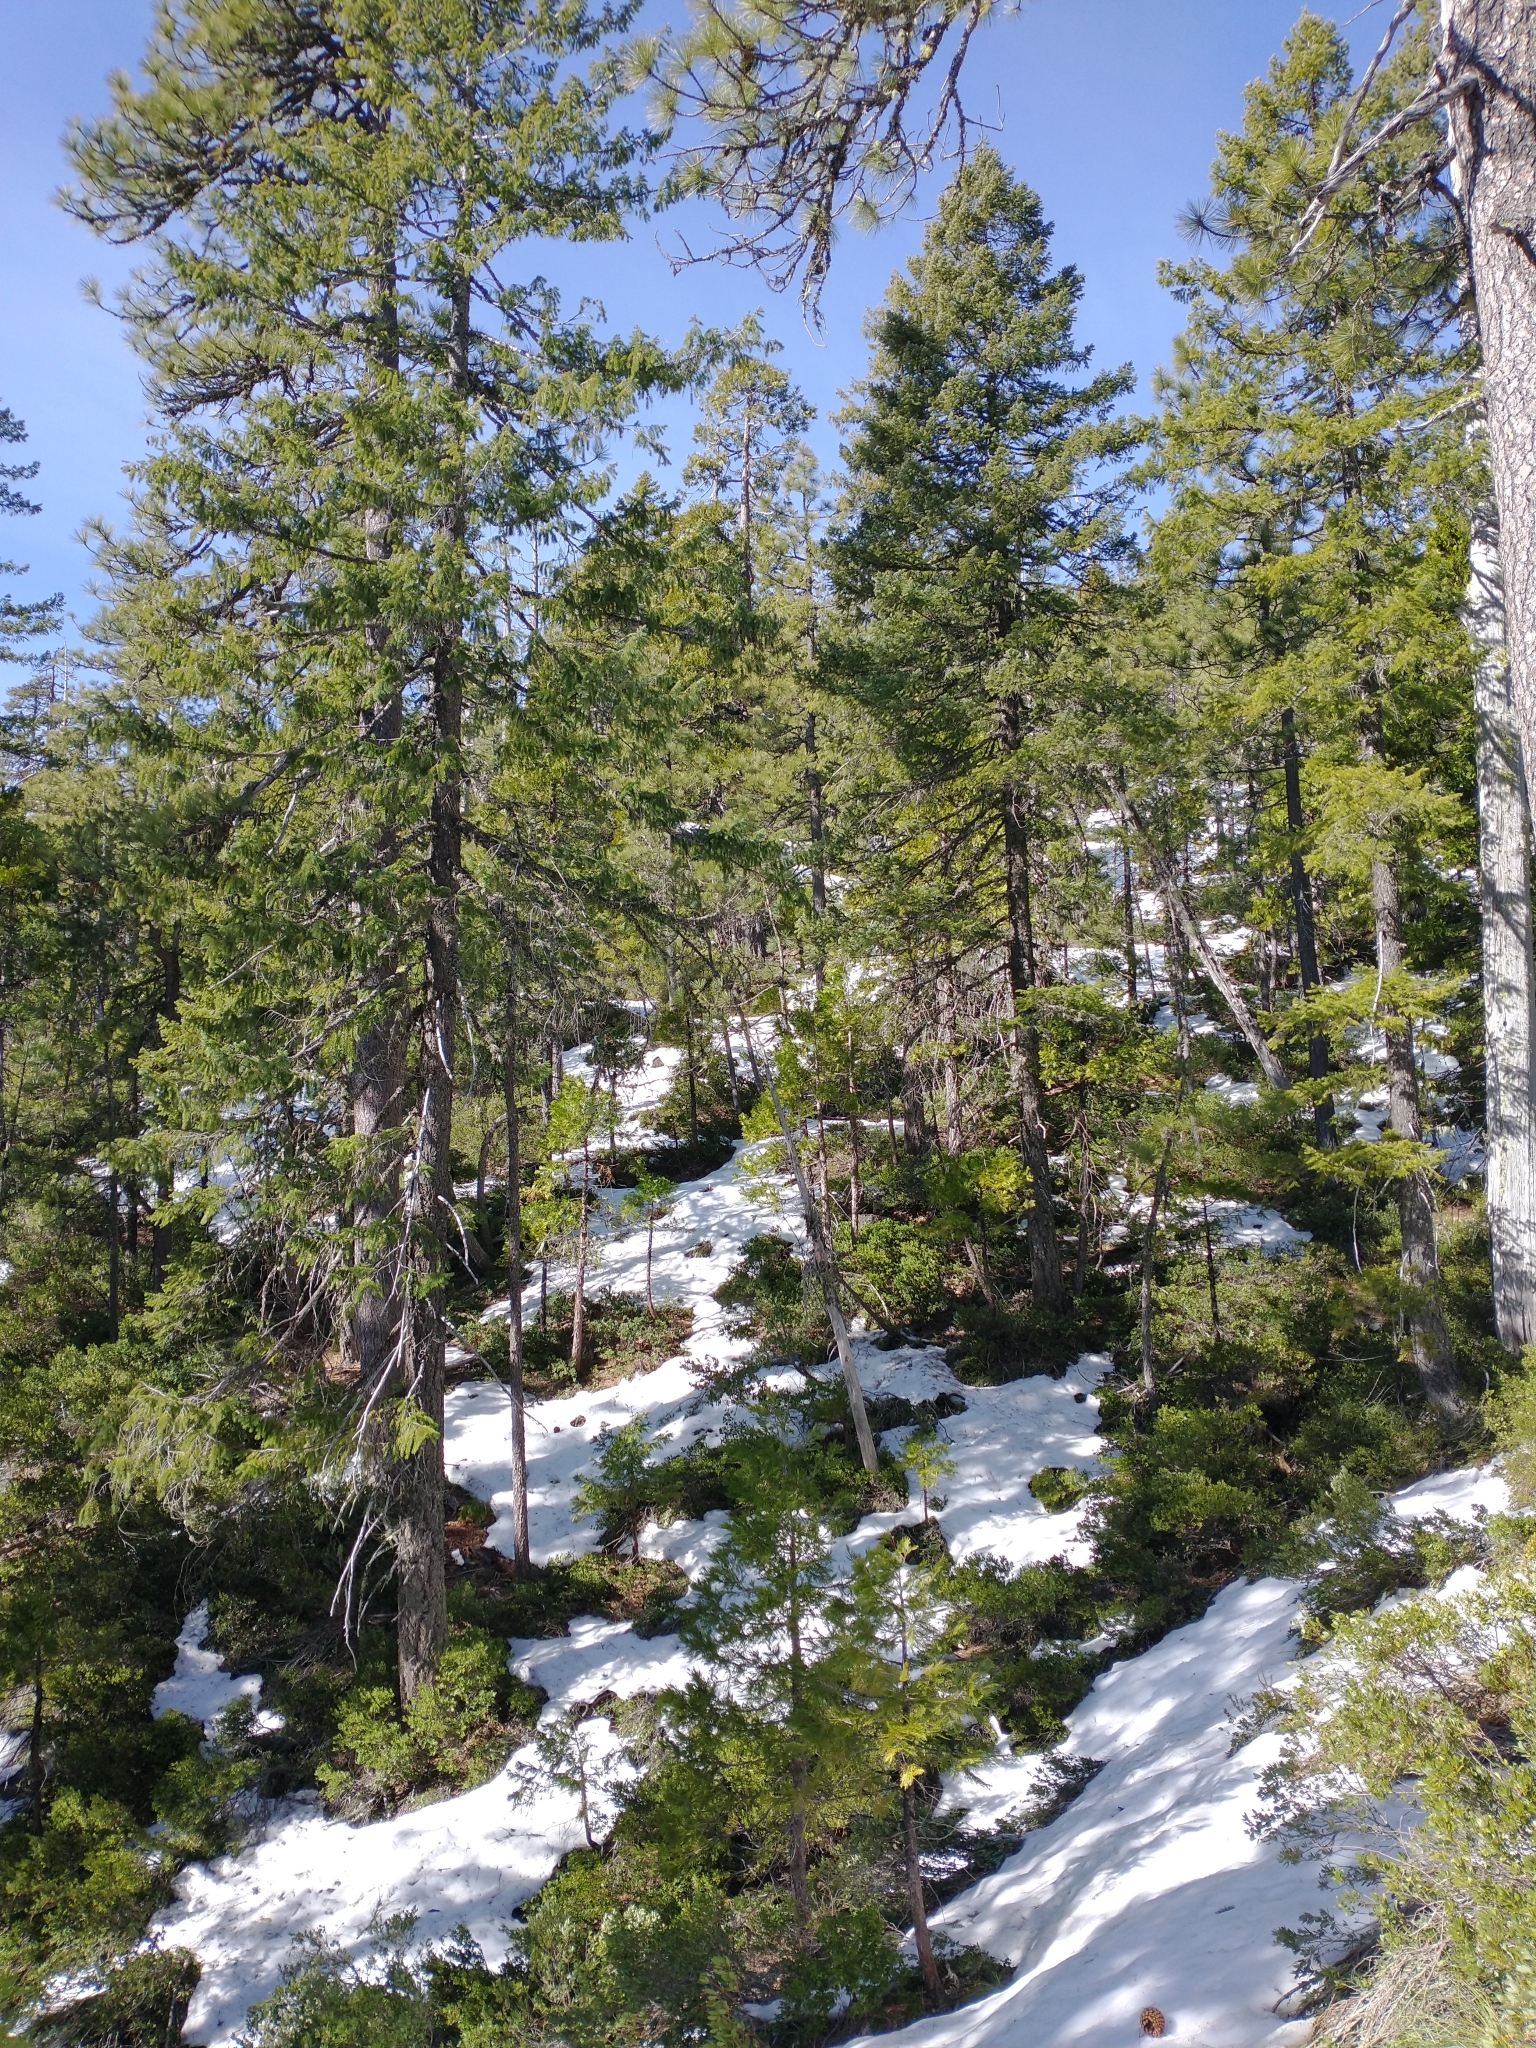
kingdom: Plantae
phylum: Tracheophyta
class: Pinopsida
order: Pinales
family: Pinaceae
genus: Pseudotsuga
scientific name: Pseudotsuga menziesii
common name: Douglas fir
